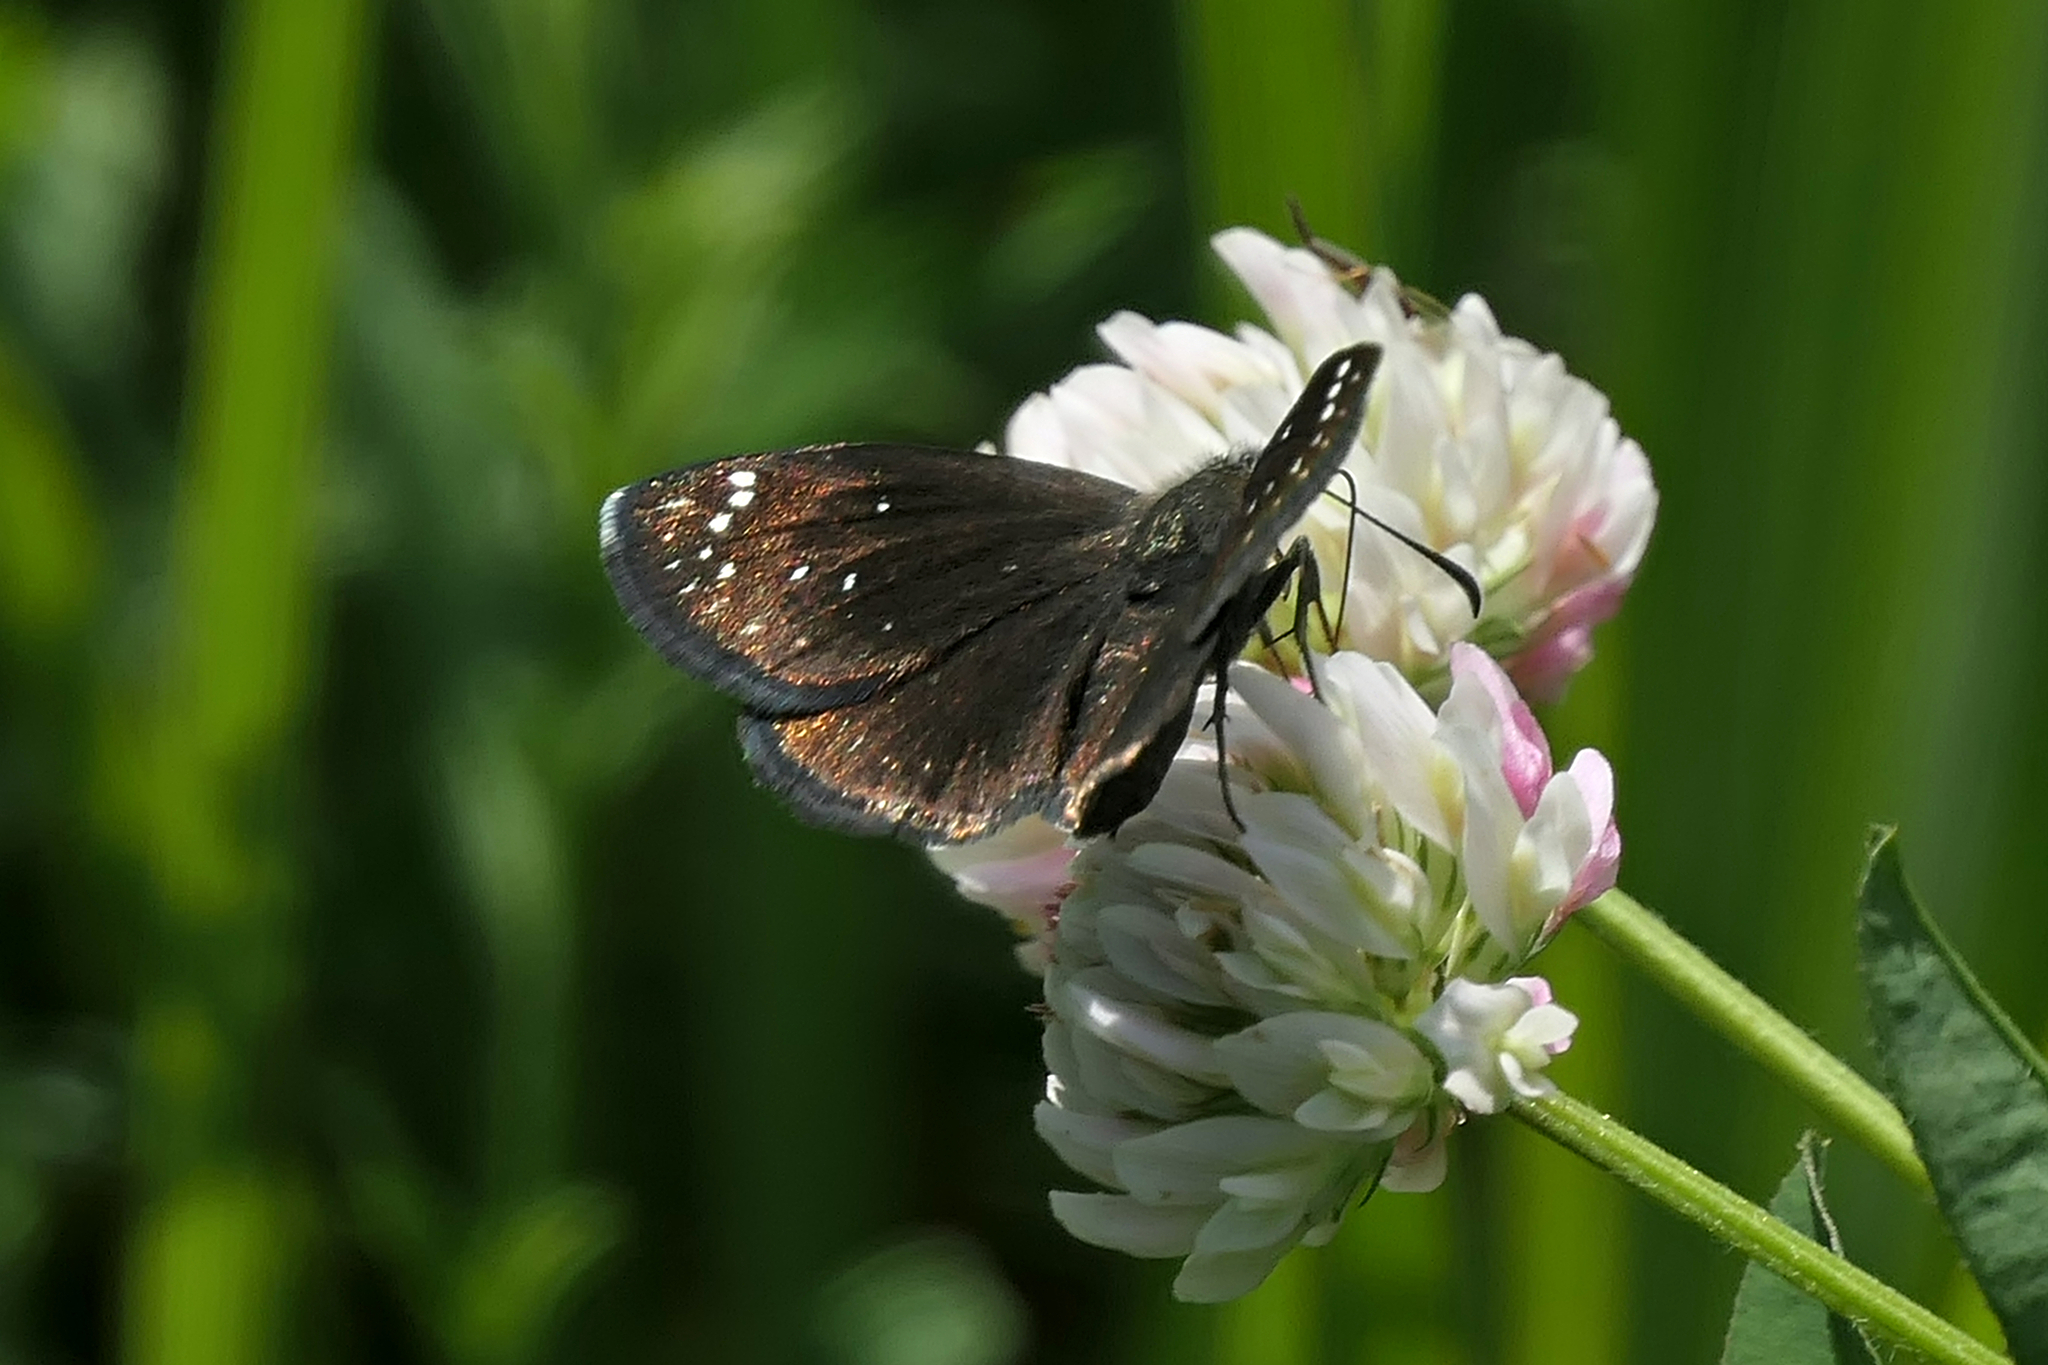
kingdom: Animalia
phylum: Arthropoda
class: Insecta
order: Lepidoptera
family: Hesperiidae
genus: Pholisora
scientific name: Pholisora catullus
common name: Common sootywing
